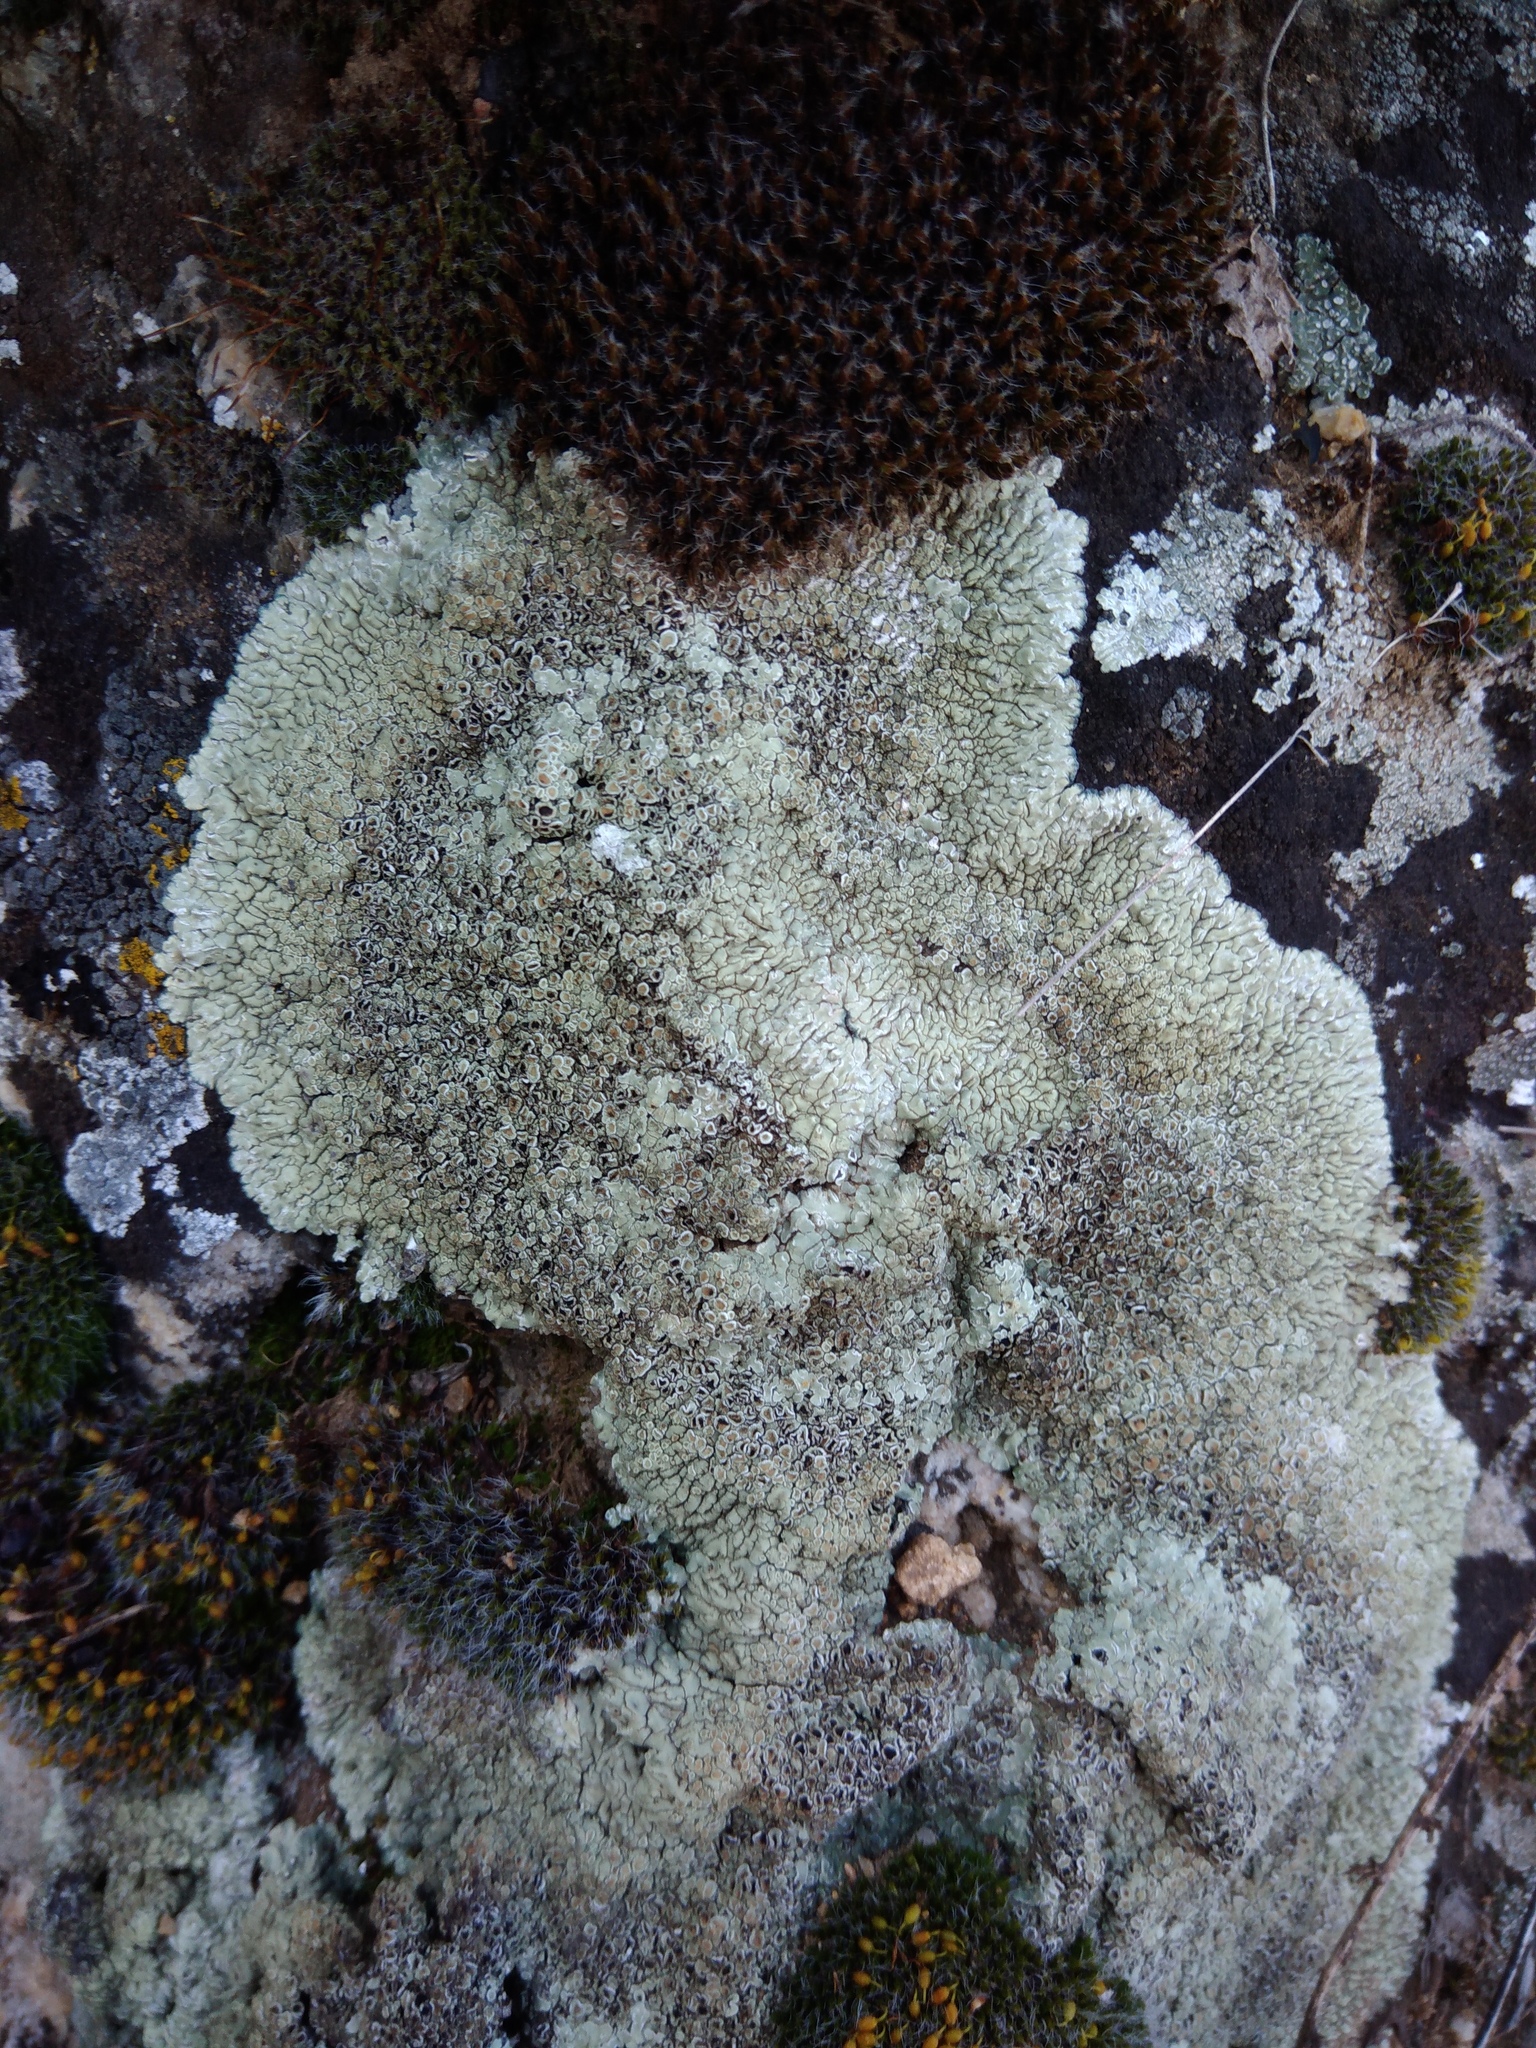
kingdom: Fungi
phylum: Ascomycota
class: Lecanoromycetes
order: Lecanorales
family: Lecanoraceae
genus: Protoparmeliopsis
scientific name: Protoparmeliopsis muralis
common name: Stonewall rim lichen
